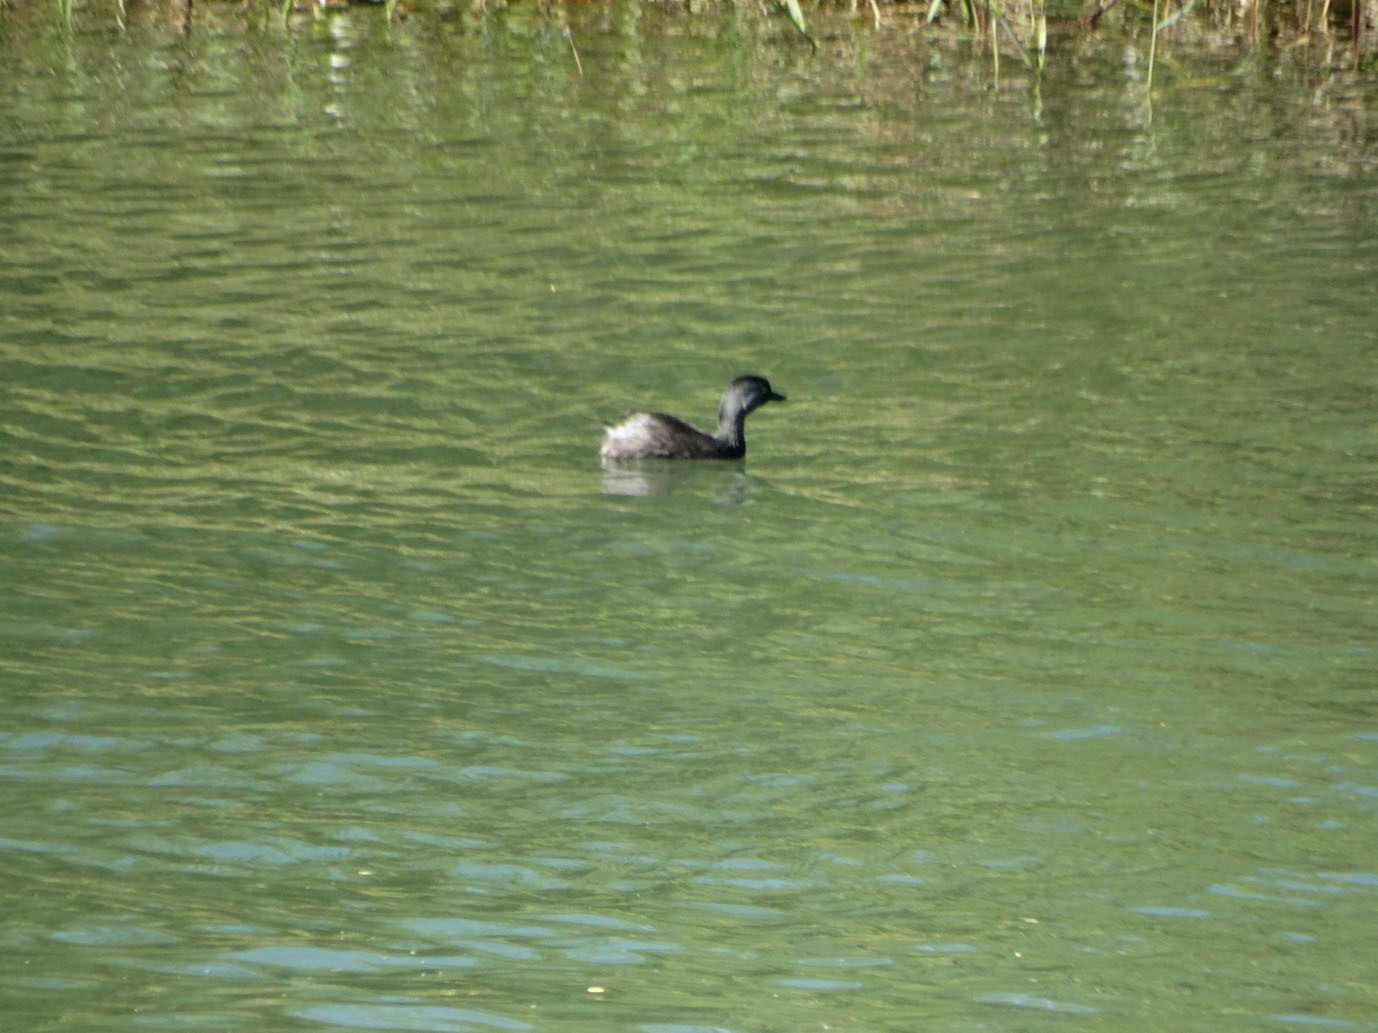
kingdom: Animalia
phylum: Chordata
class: Aves
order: Podicipediformes
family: Podicipedidae
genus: Tachybaptus
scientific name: Tachybaptus dominicus
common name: Least grebe
